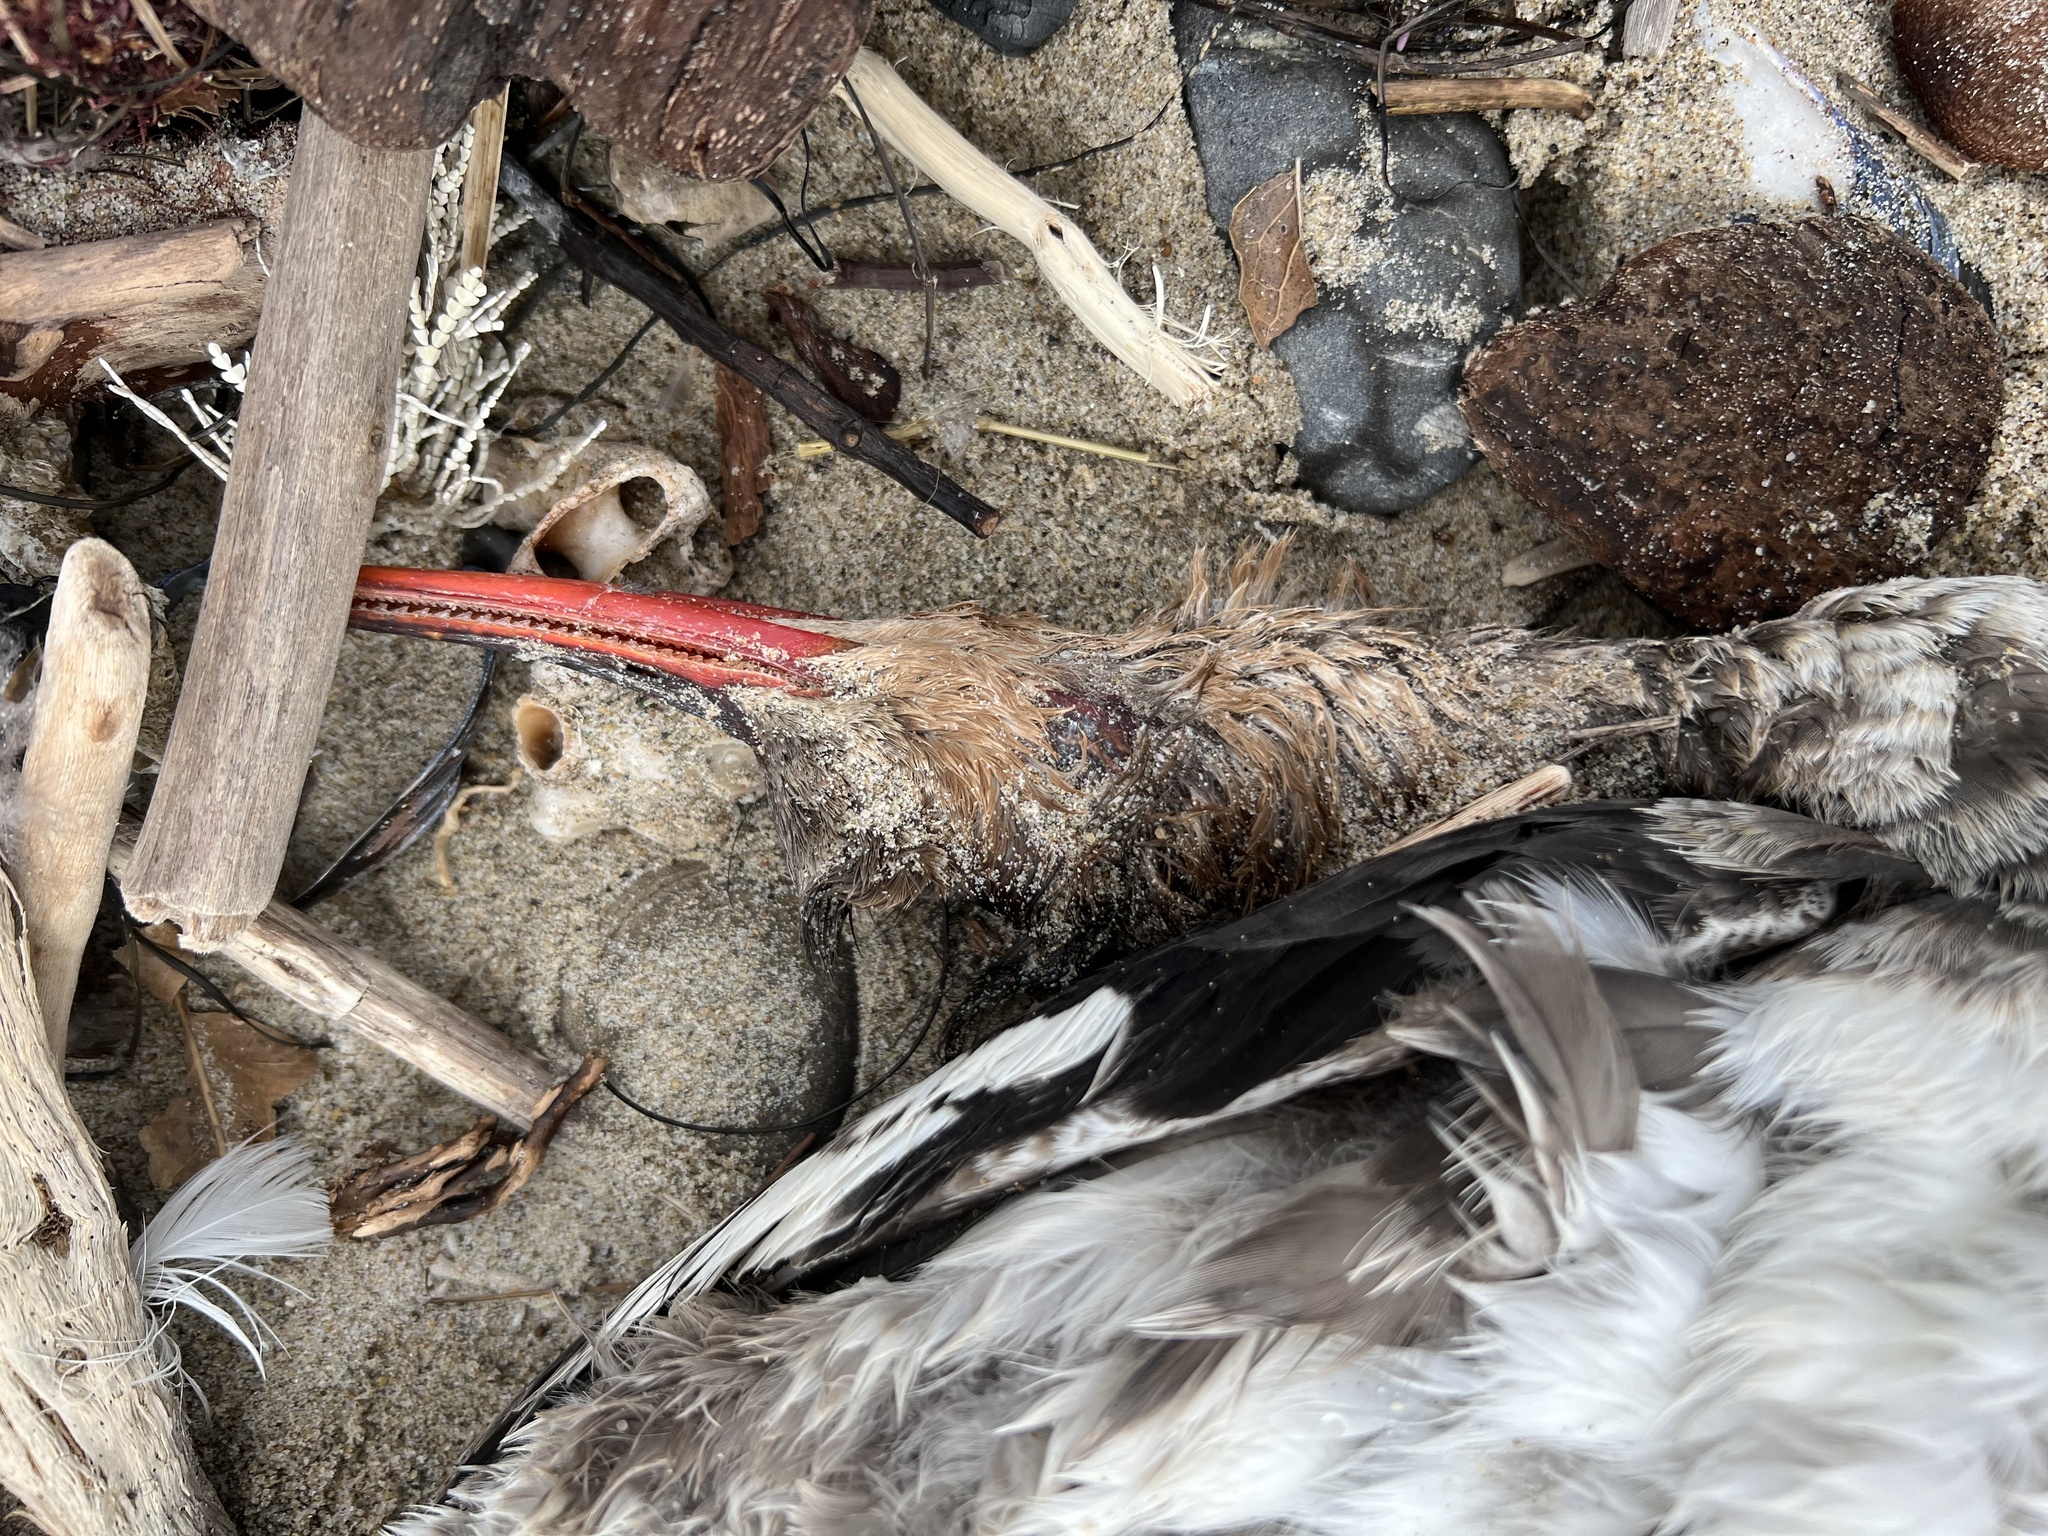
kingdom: Animalia
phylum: Chordata
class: Aves
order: Anseriformes
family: Anatidae
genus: Mergus
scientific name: Mergus serrator
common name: Red-breasted merganser
